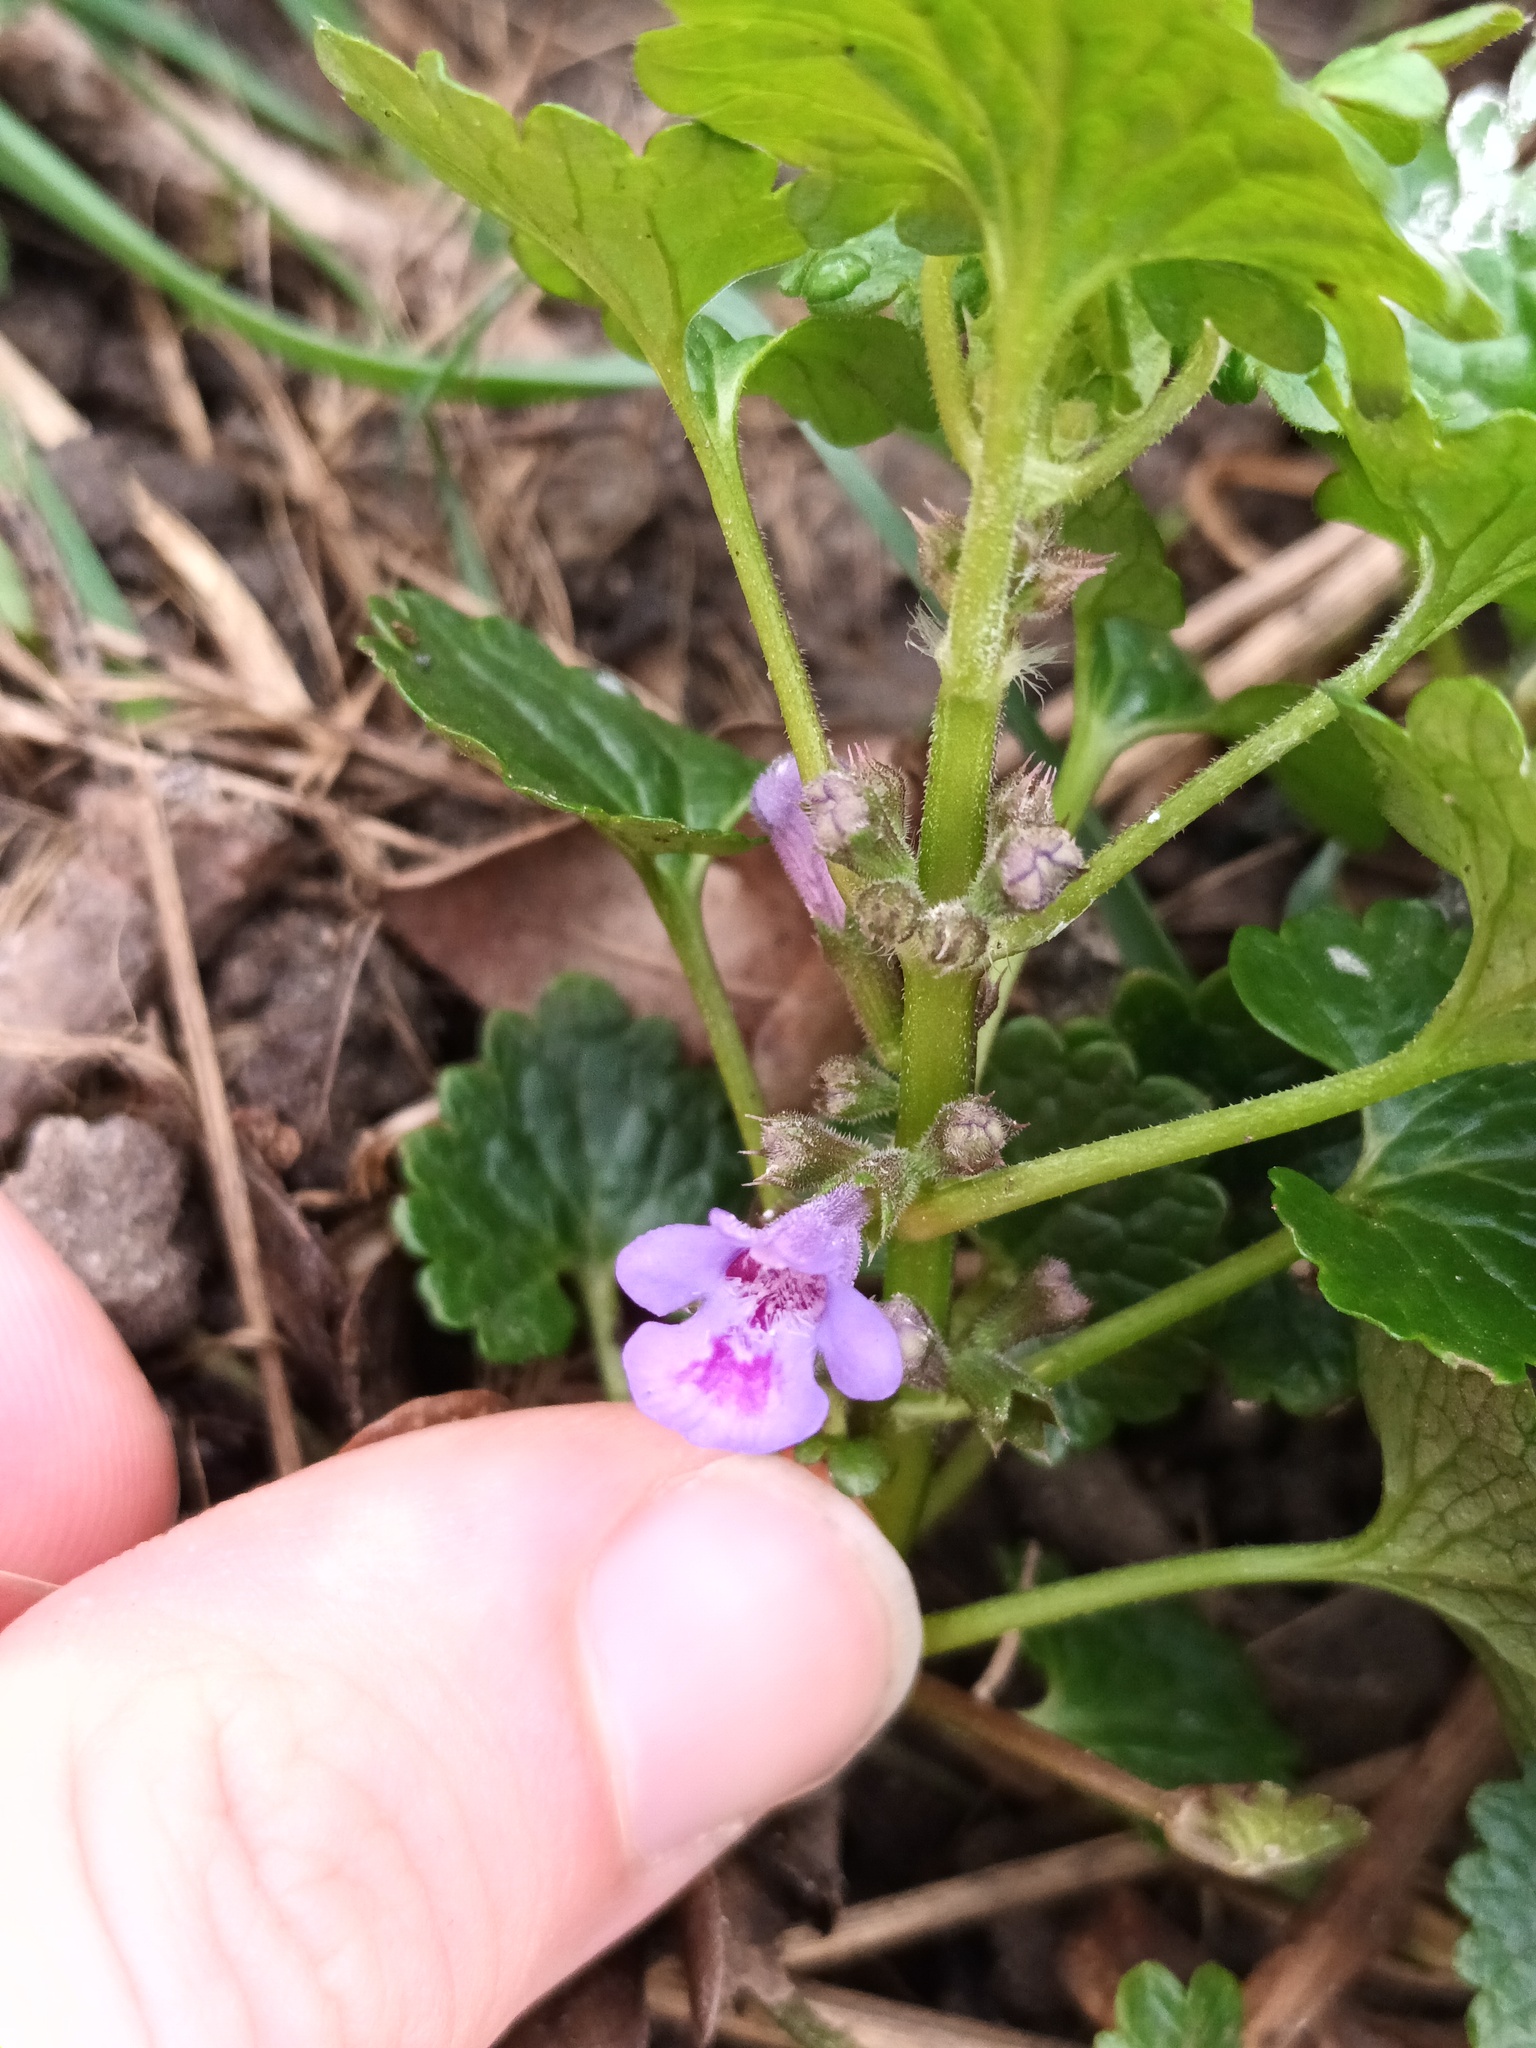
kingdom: Plantae
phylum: Tracheophyta
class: Magnoliopsida
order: Lamiales
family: Lamiaceae
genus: Glechoma
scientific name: Glechoma hederacea
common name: Ground ivy
